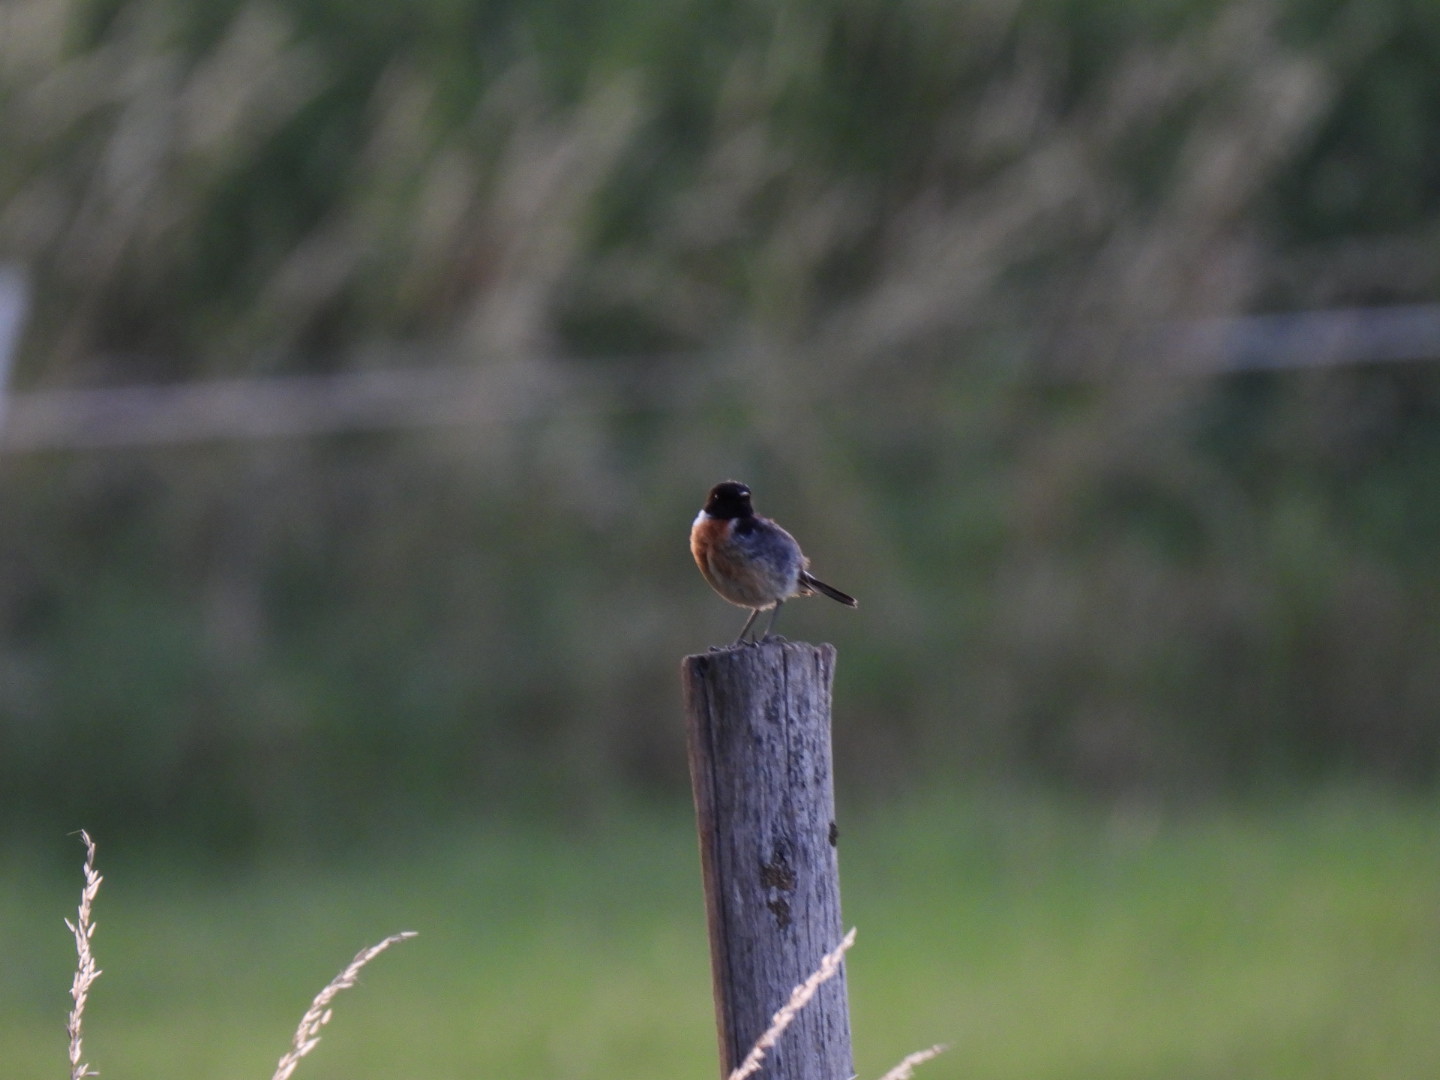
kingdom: Animalia
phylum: Chordata
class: Aves
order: Passeriformes
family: Muscicapidae
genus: Saxicola
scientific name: Saxicola rubicola
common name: European stonechat
